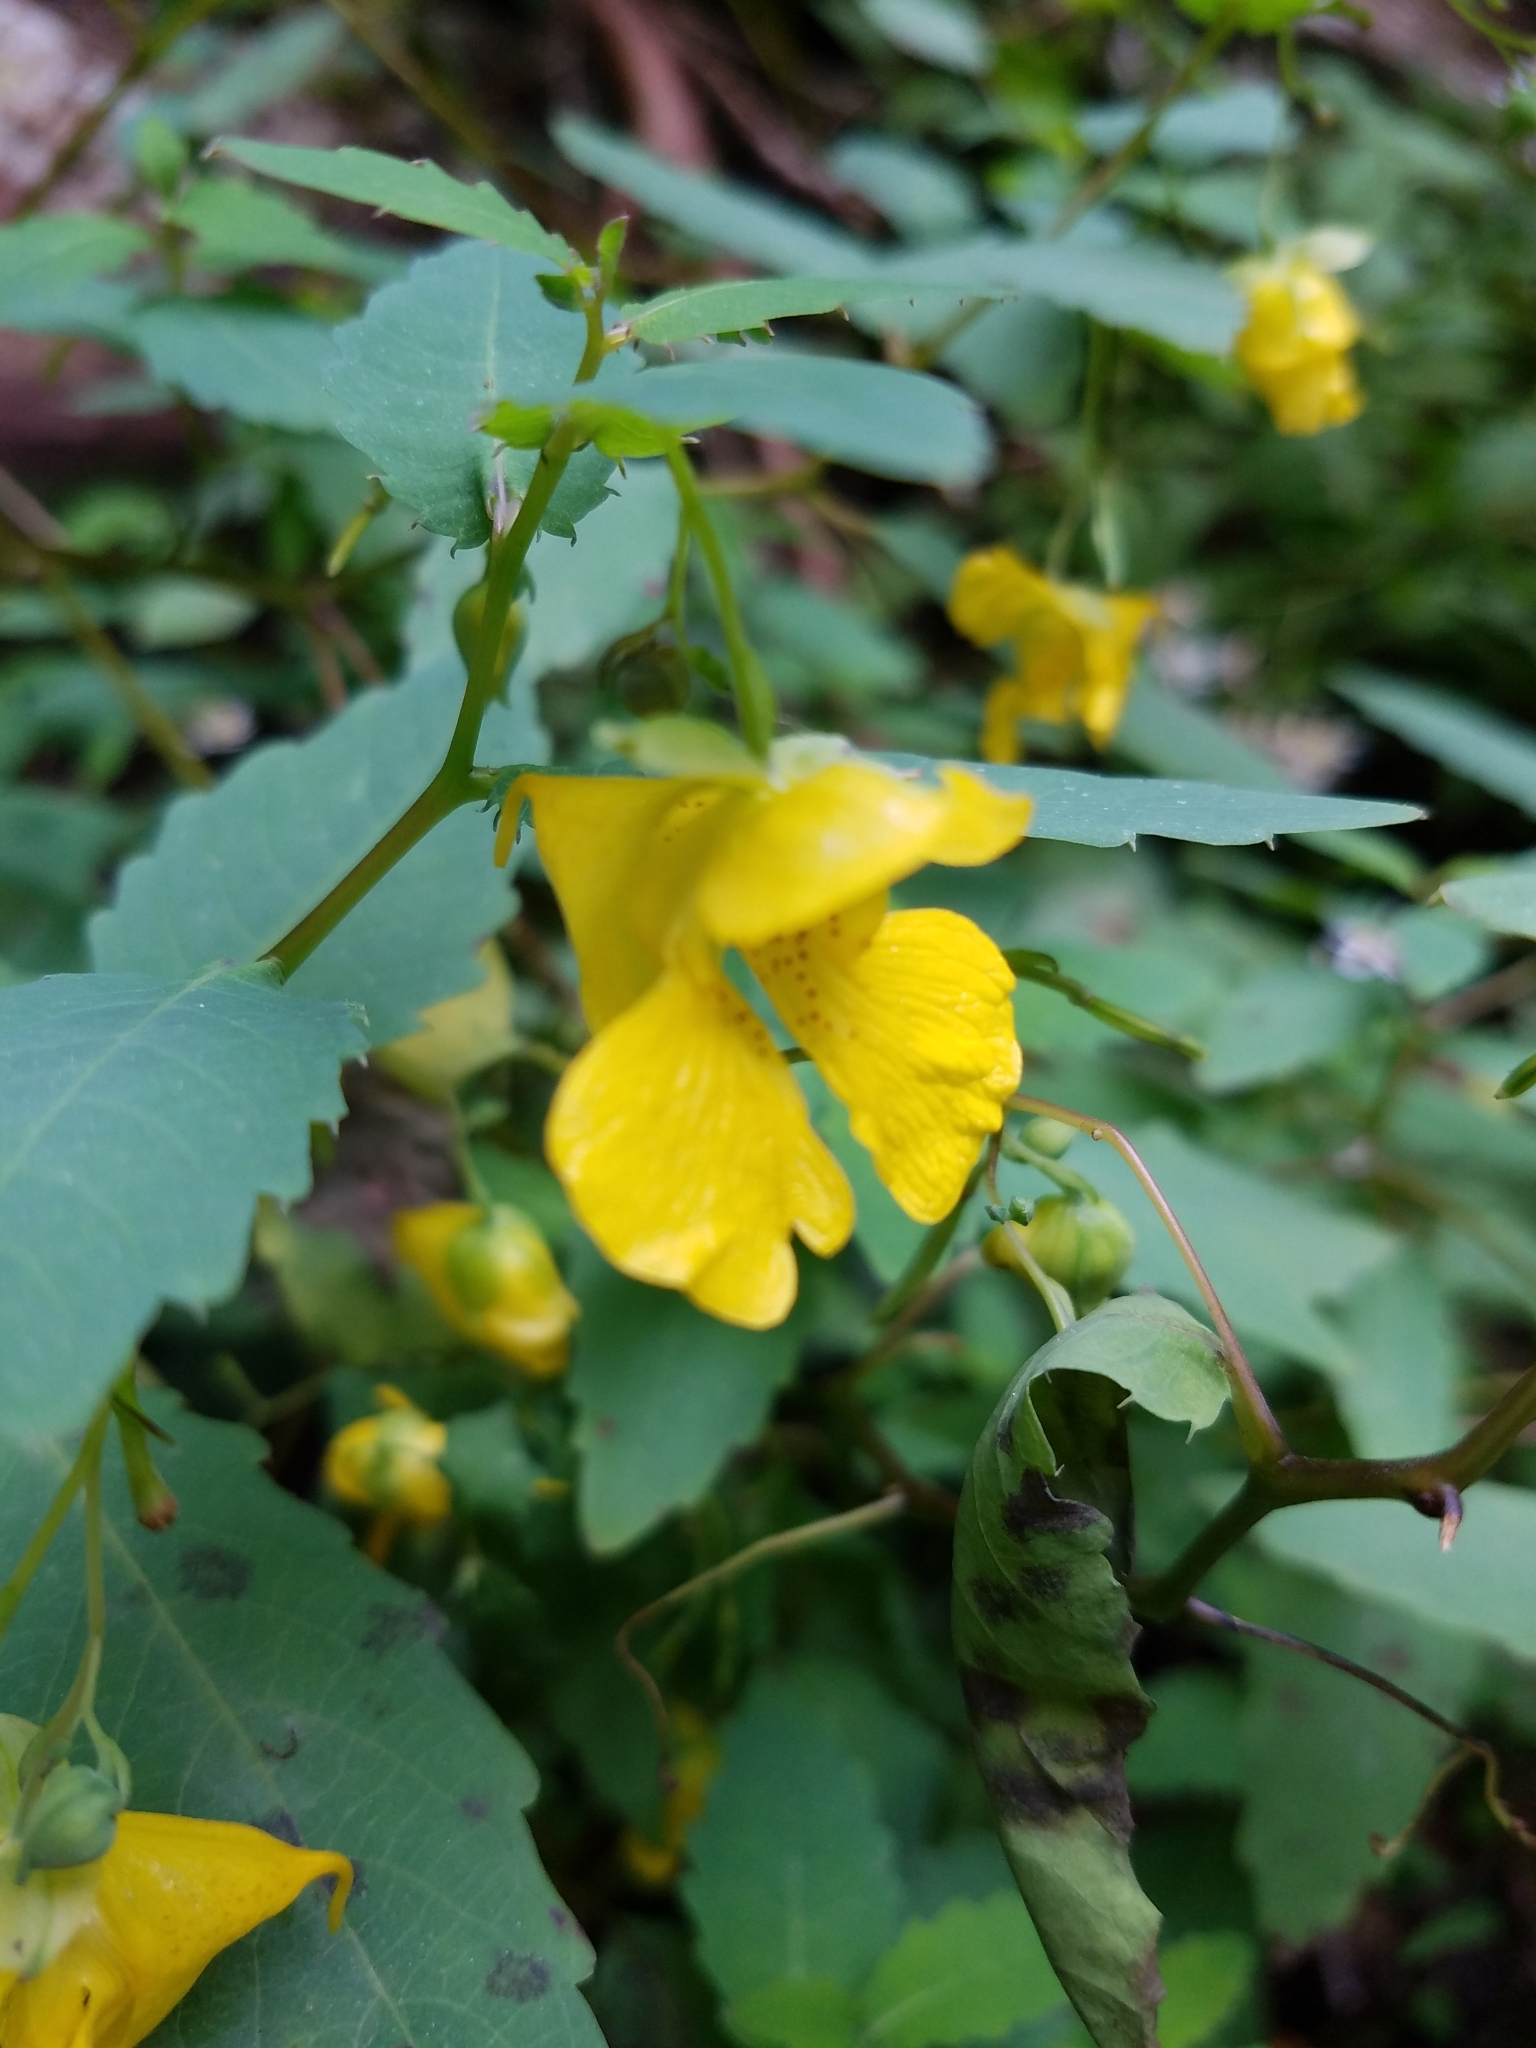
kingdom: Plantae
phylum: Tracheophyta
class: Magnoliopsida
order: Ericales
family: Balsaminaceae
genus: Impatiens
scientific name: Impatiens pallida
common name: Pale snapweed
